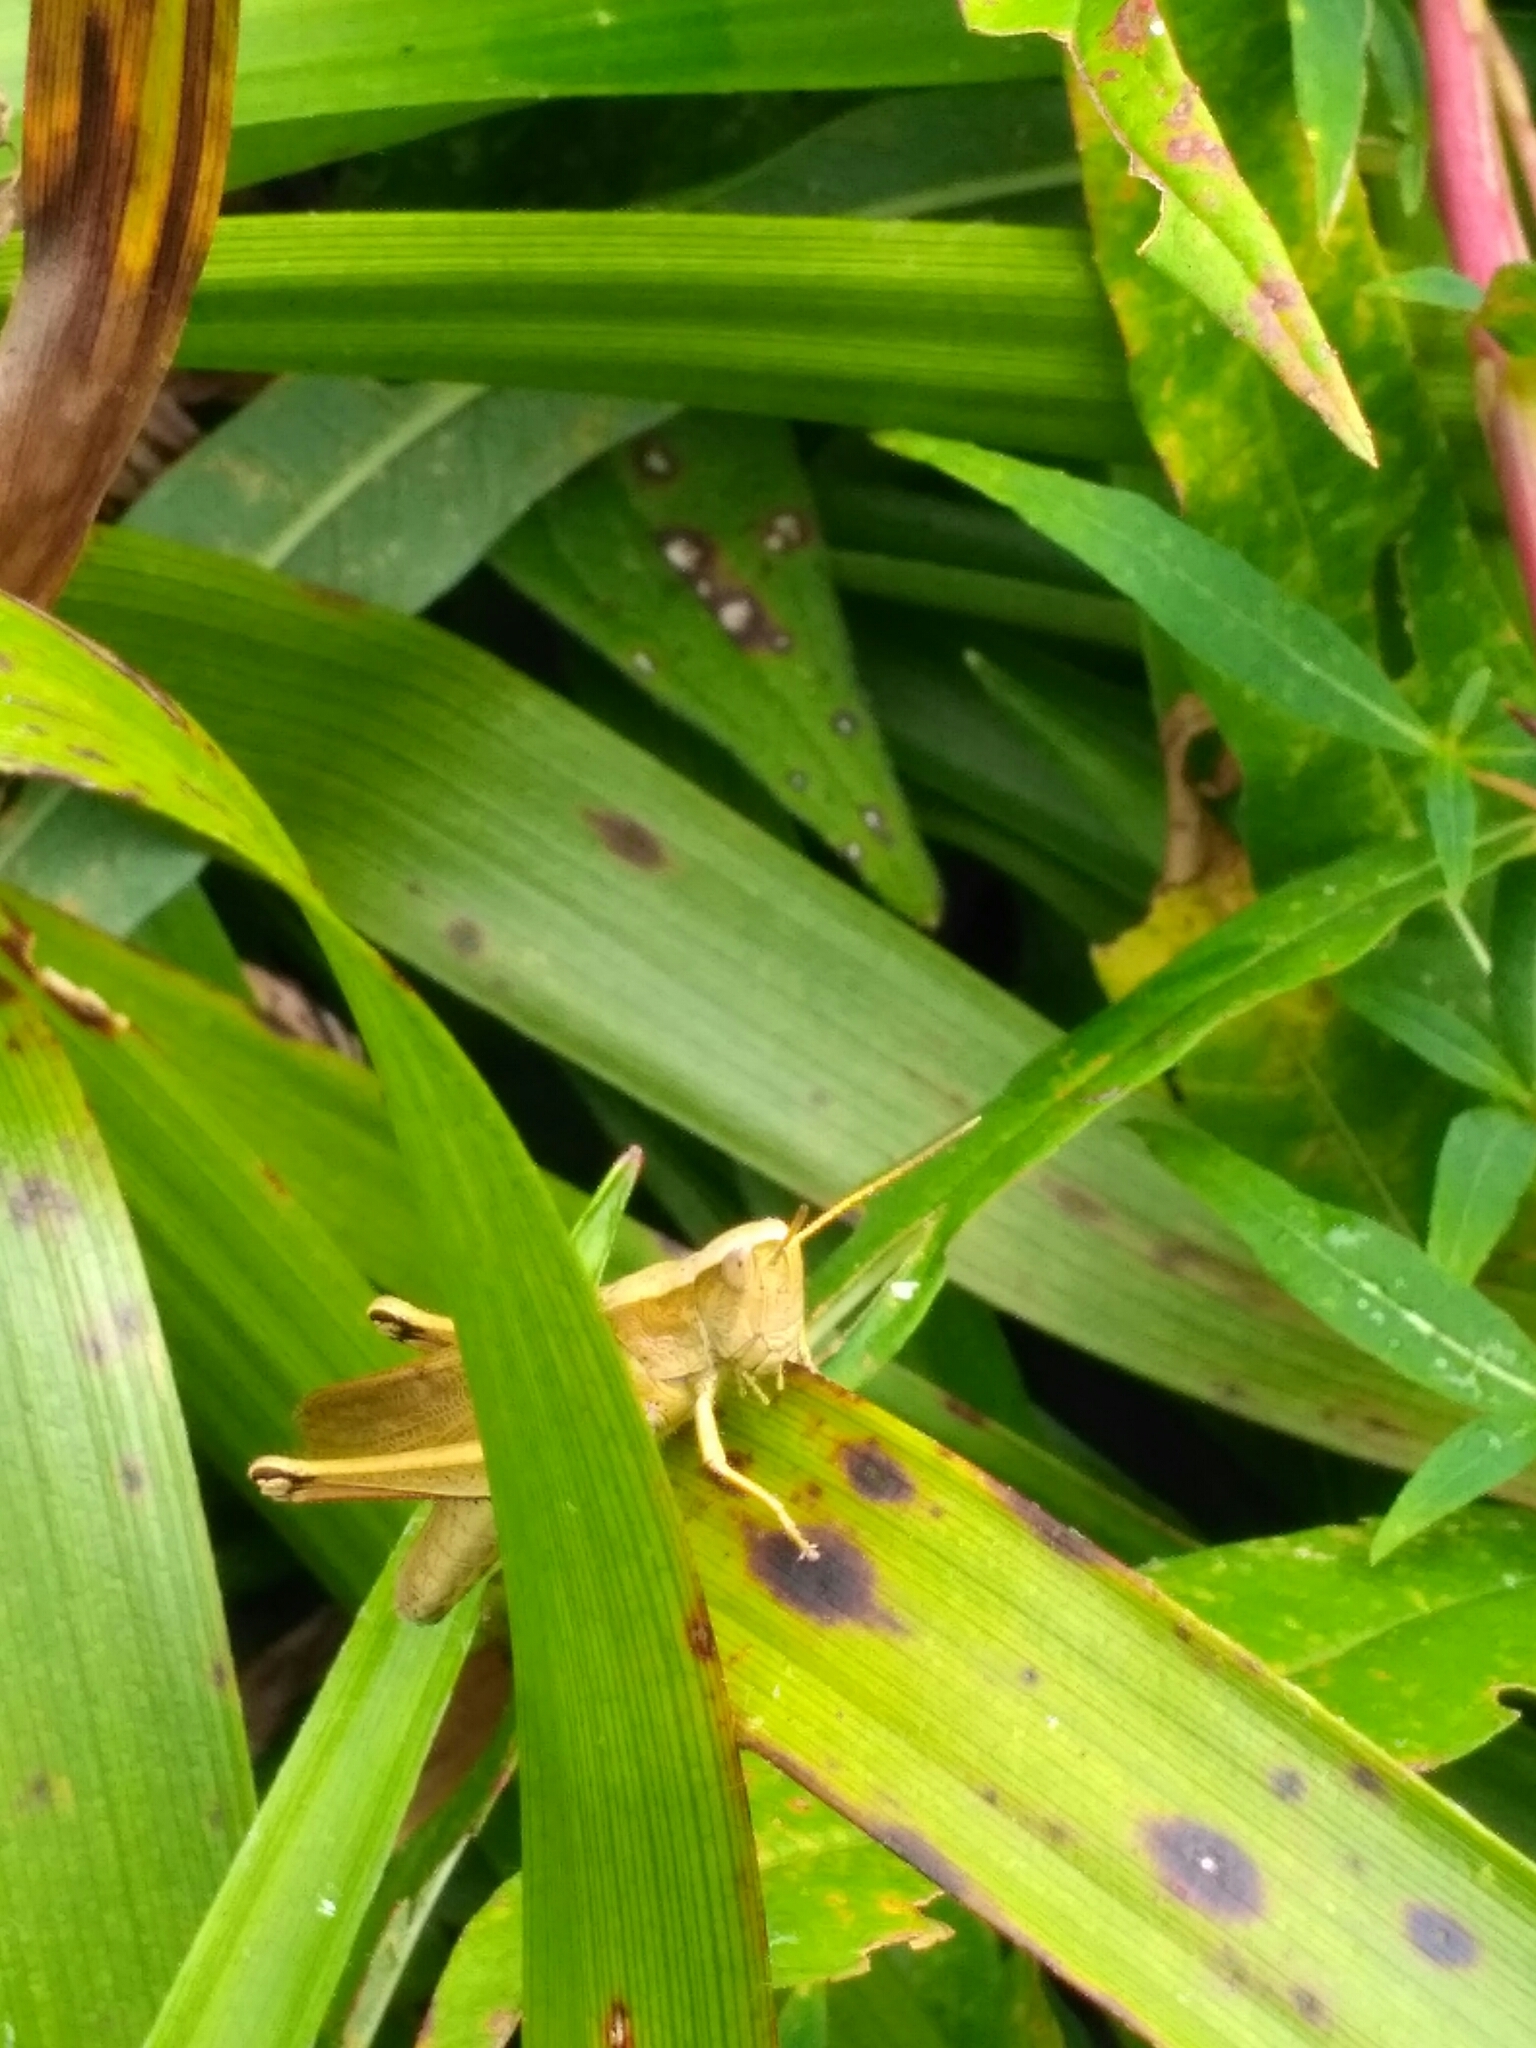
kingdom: Animalia
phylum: Arthropoda
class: Insecta
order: Orthoptera
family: Acrididae
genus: Chrysochraon
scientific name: Chrysochraon dispar
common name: Large gold grasshopper
